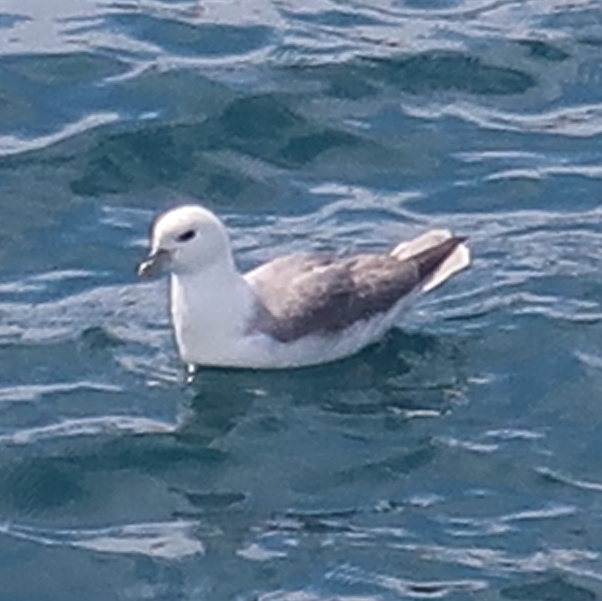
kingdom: Animalia
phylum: Chordata
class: Aves
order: Procellariiformes
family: Procellariidae
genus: Fulmarus
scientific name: Fulmarus glacialis
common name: Northern fulmar
